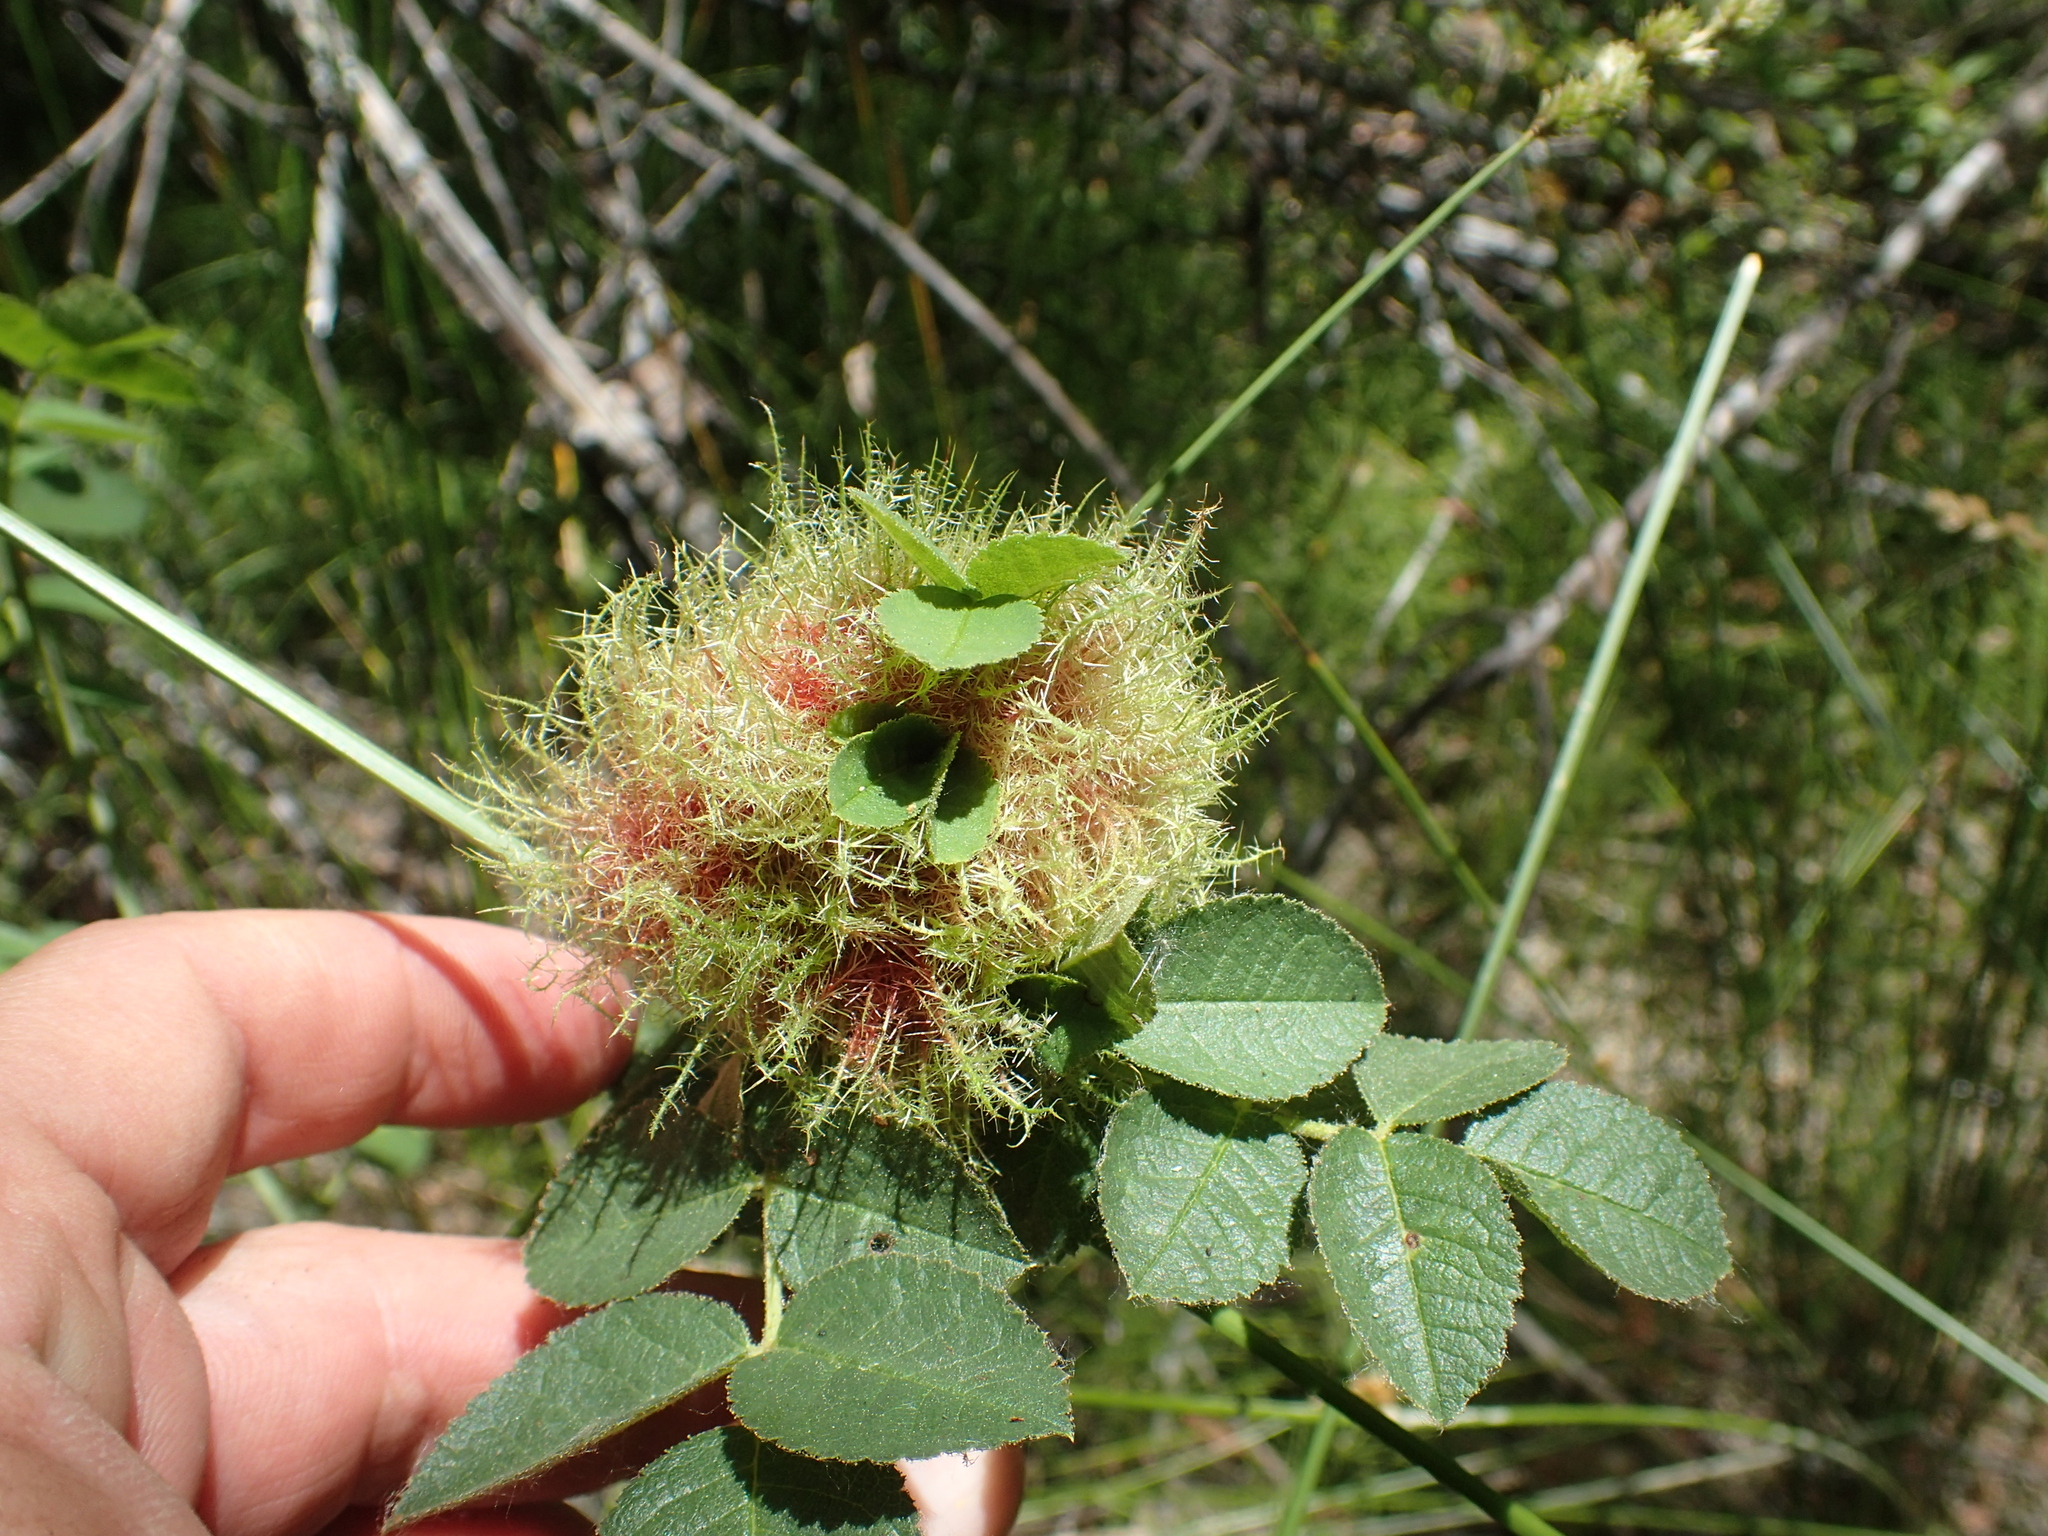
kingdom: Animalia
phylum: Arthropoda
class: Insecta
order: Hymenoptera
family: Cynipidae
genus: Diplolepis
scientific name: Diplolepis rosae
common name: Bedeguar gall
